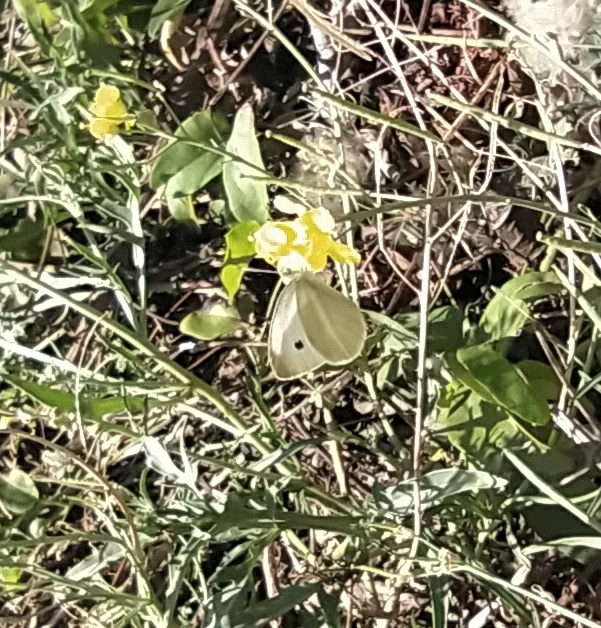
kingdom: Animalia
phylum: Arthropoda
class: Insecta
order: Lepidoptera
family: Pieridae
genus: Pieris
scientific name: Pieris rapae
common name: Small white
